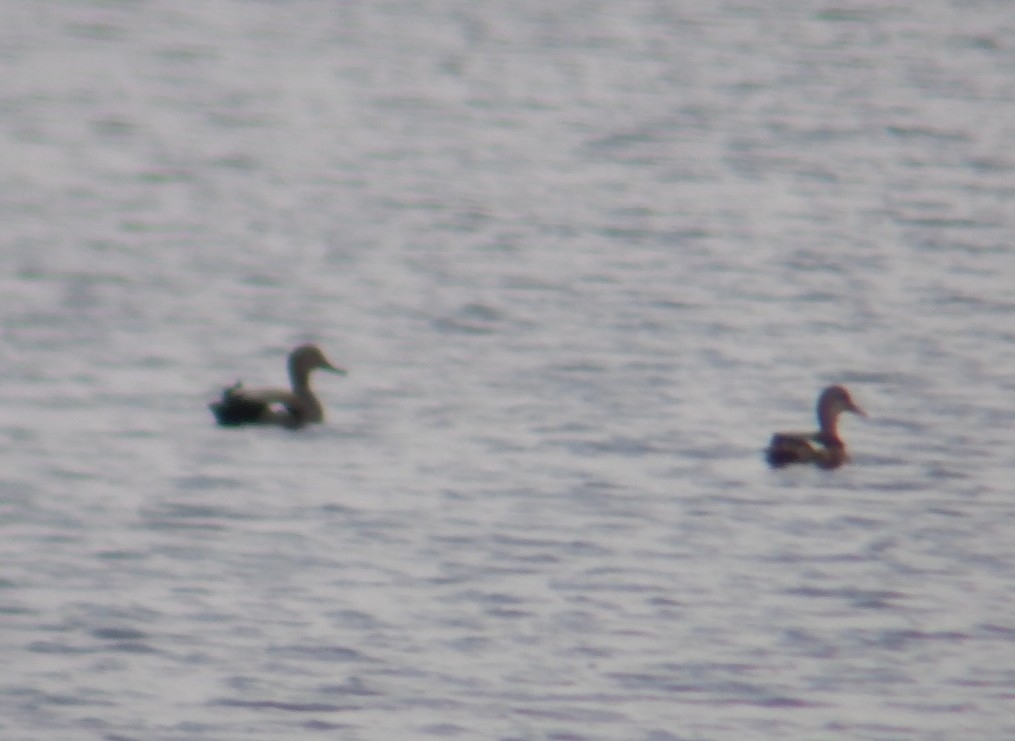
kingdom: Animalia
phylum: Chordata
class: Aves
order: Anseriformes
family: Anatidae
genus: Mareca
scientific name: Mareca strepera
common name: Gadwall
